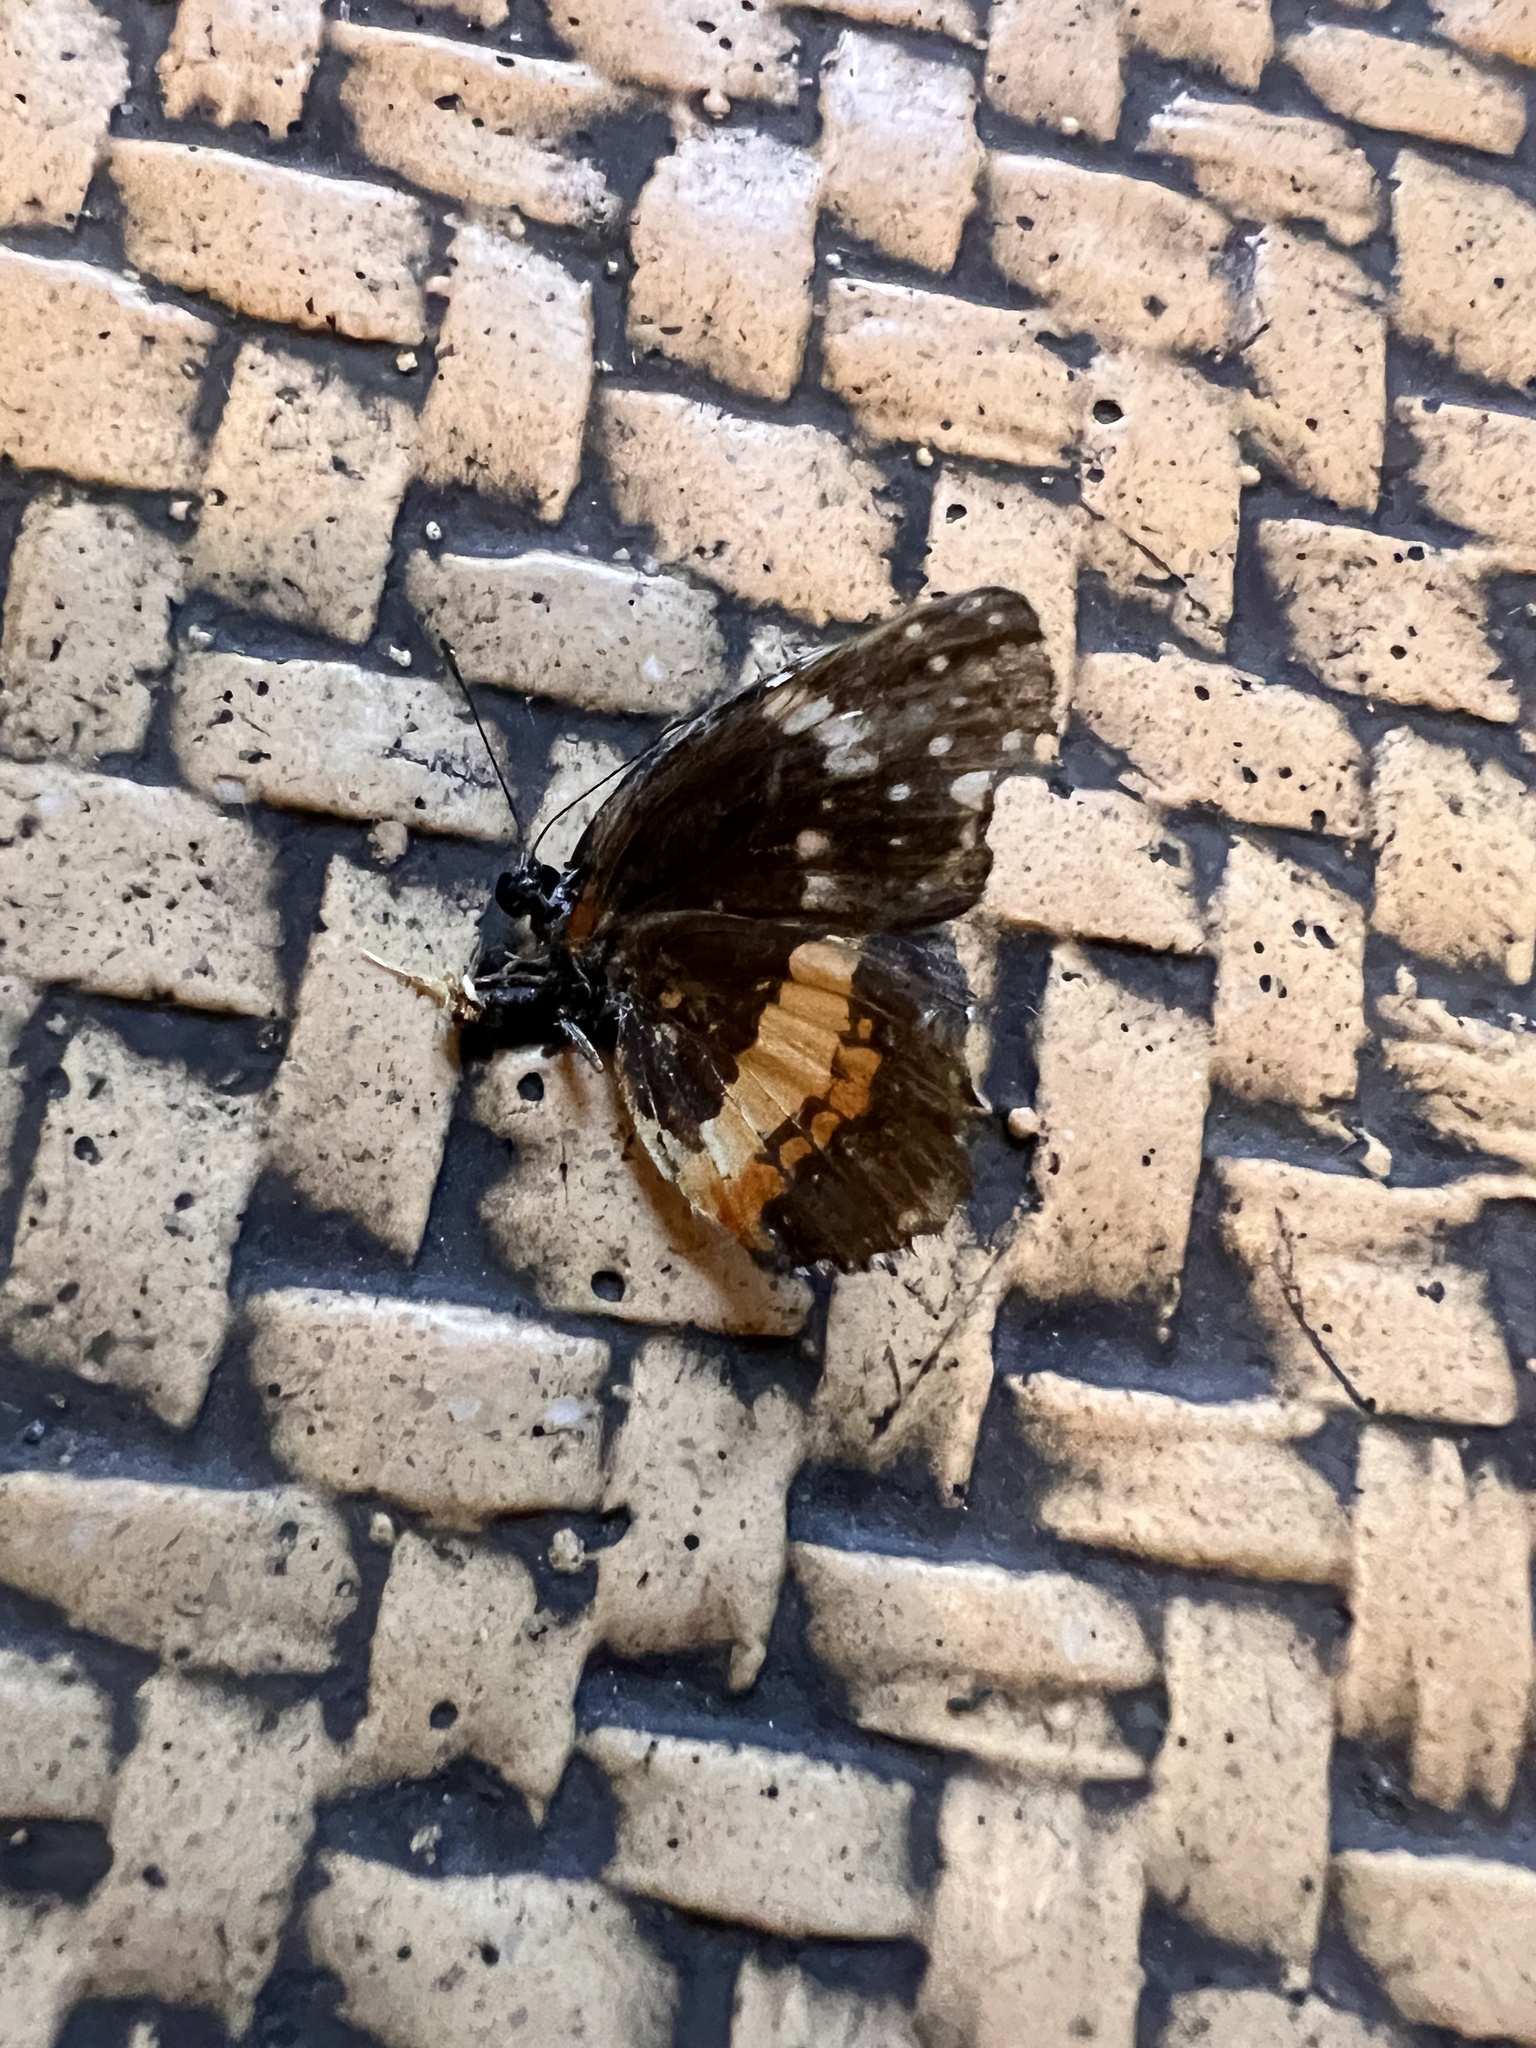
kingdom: Animalia
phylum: Arthropoda
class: Insecta
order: Lepidoptera
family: Nymphalidae
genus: Chlosyne
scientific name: Chlosyne lacinia
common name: Bordered patch
